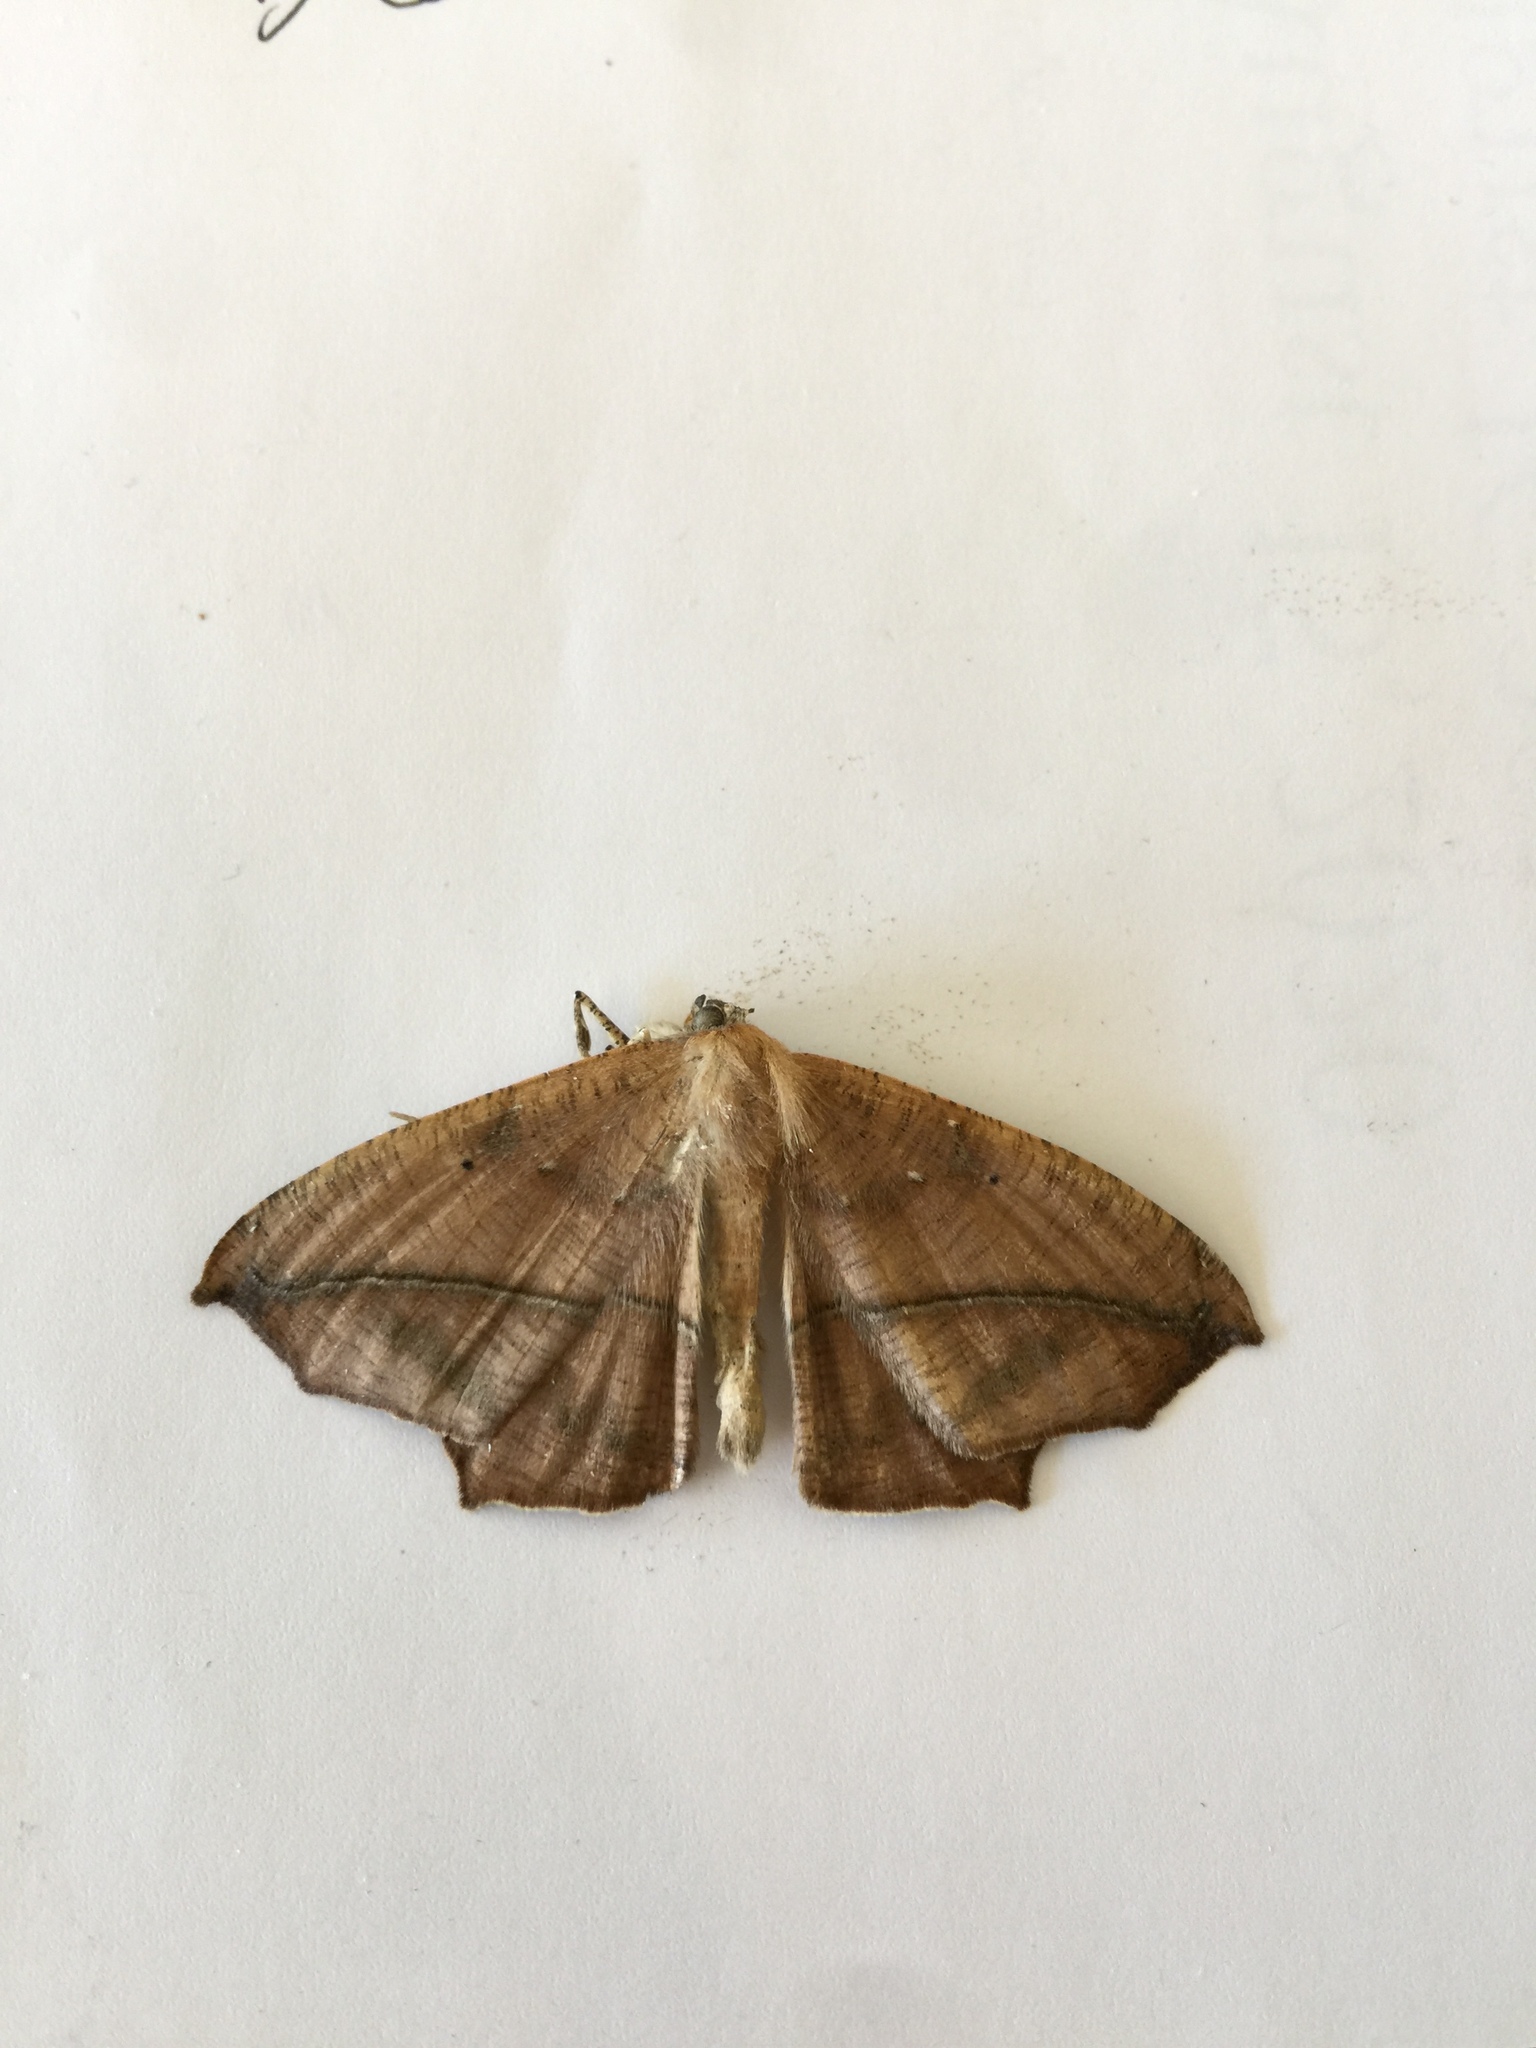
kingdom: Animalia
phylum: Arthropoda
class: Insecta
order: Lepidoptera
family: Geometridae
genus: Prochoerodes
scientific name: Prochoerodes lineola
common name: Large maple spanworm
